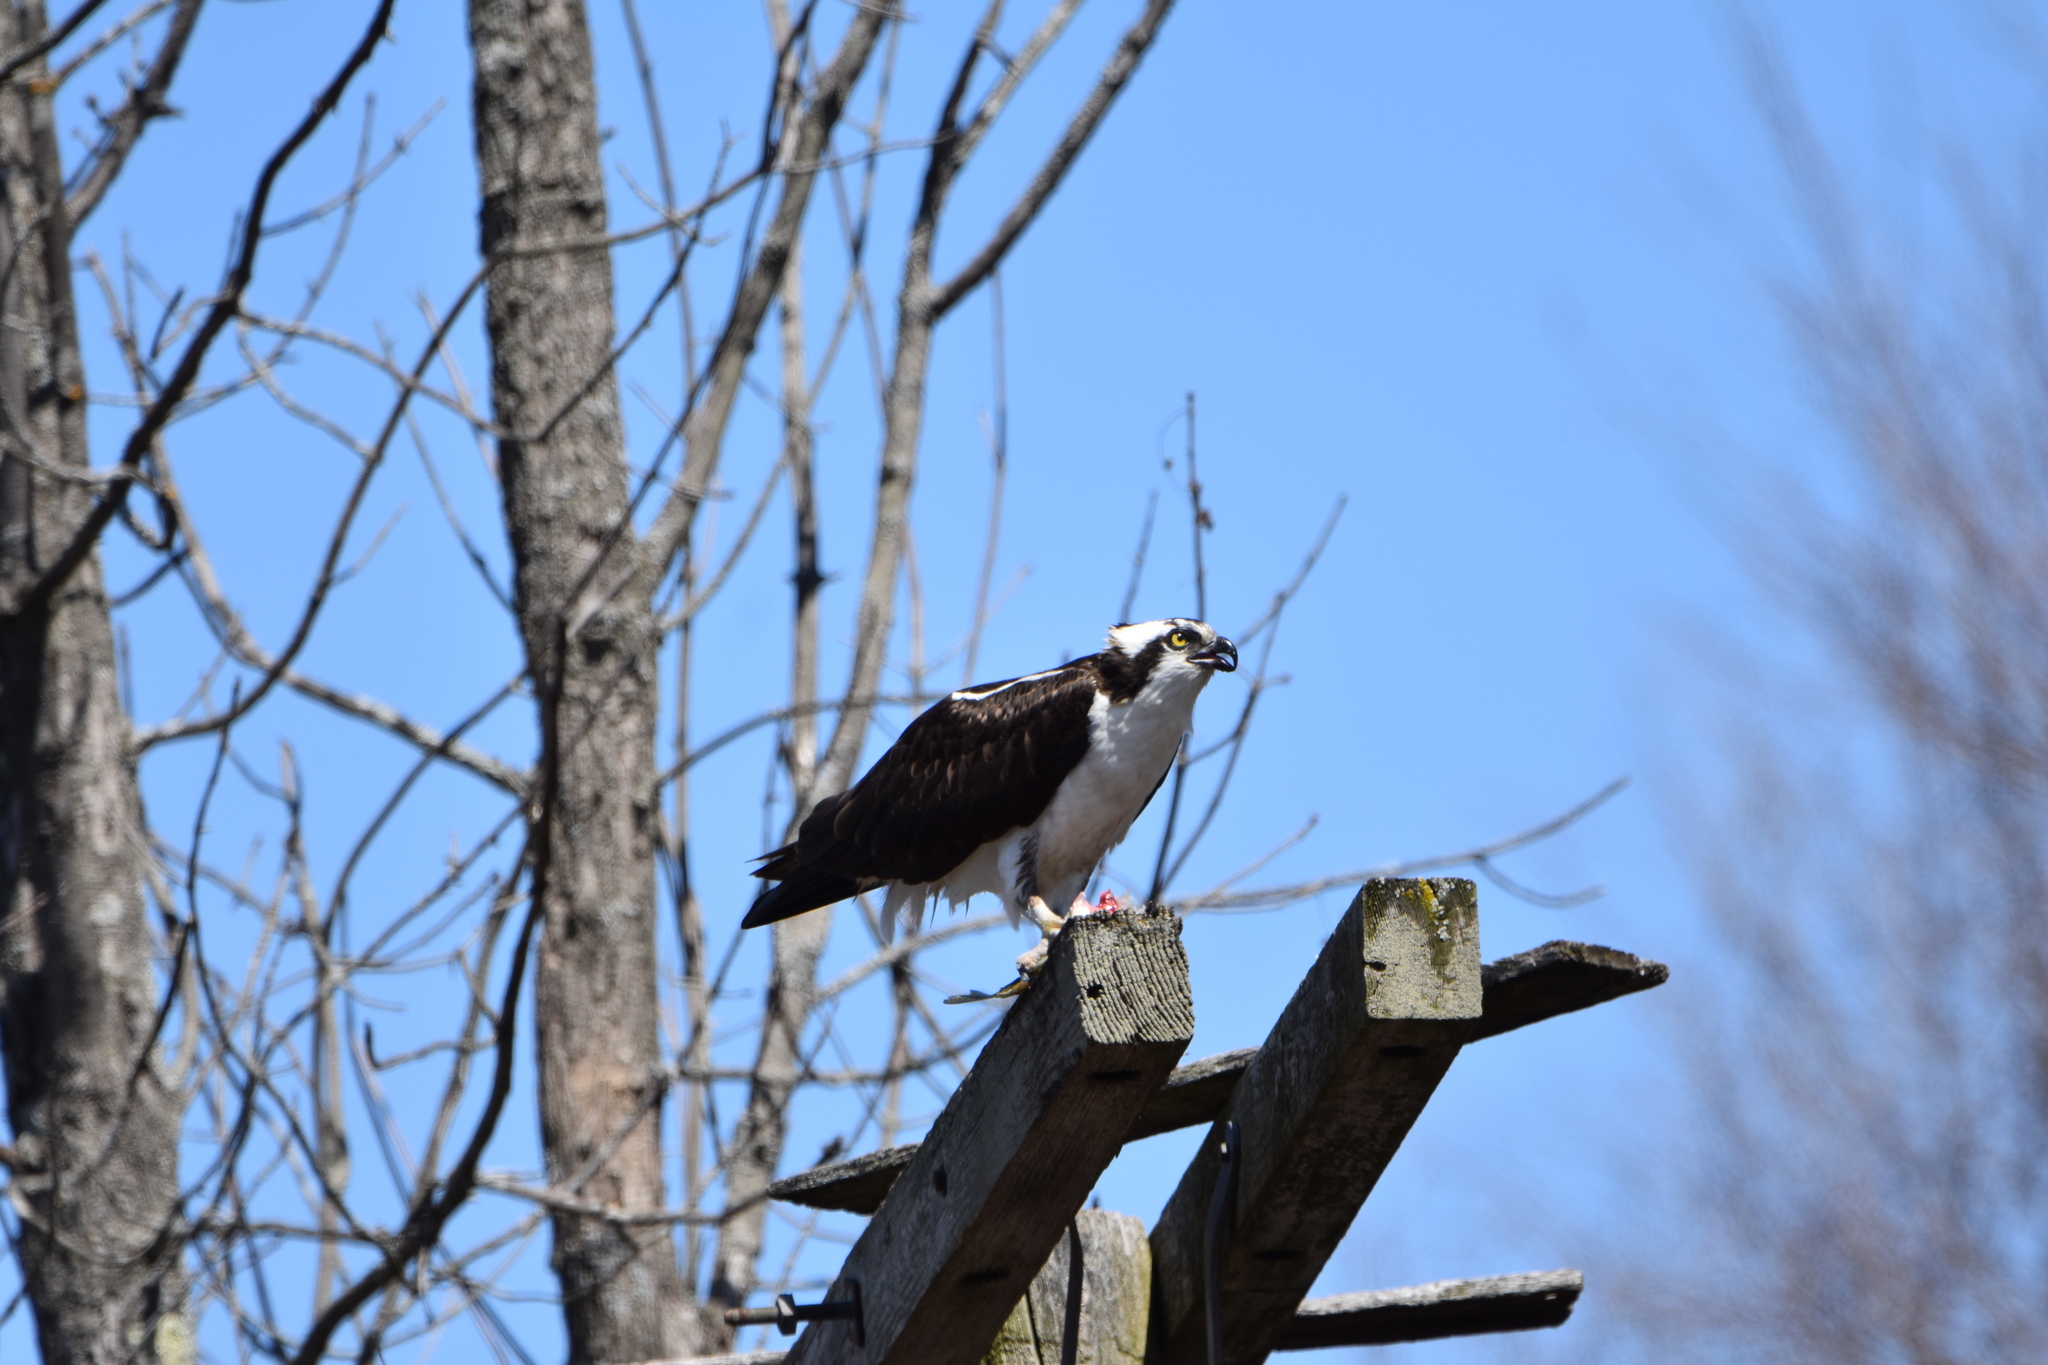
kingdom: Animalia
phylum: Chordata
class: Aves
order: Accipitriformes
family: Pandionidae
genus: Pandion
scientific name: Pandion haliaetus
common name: Osprey
